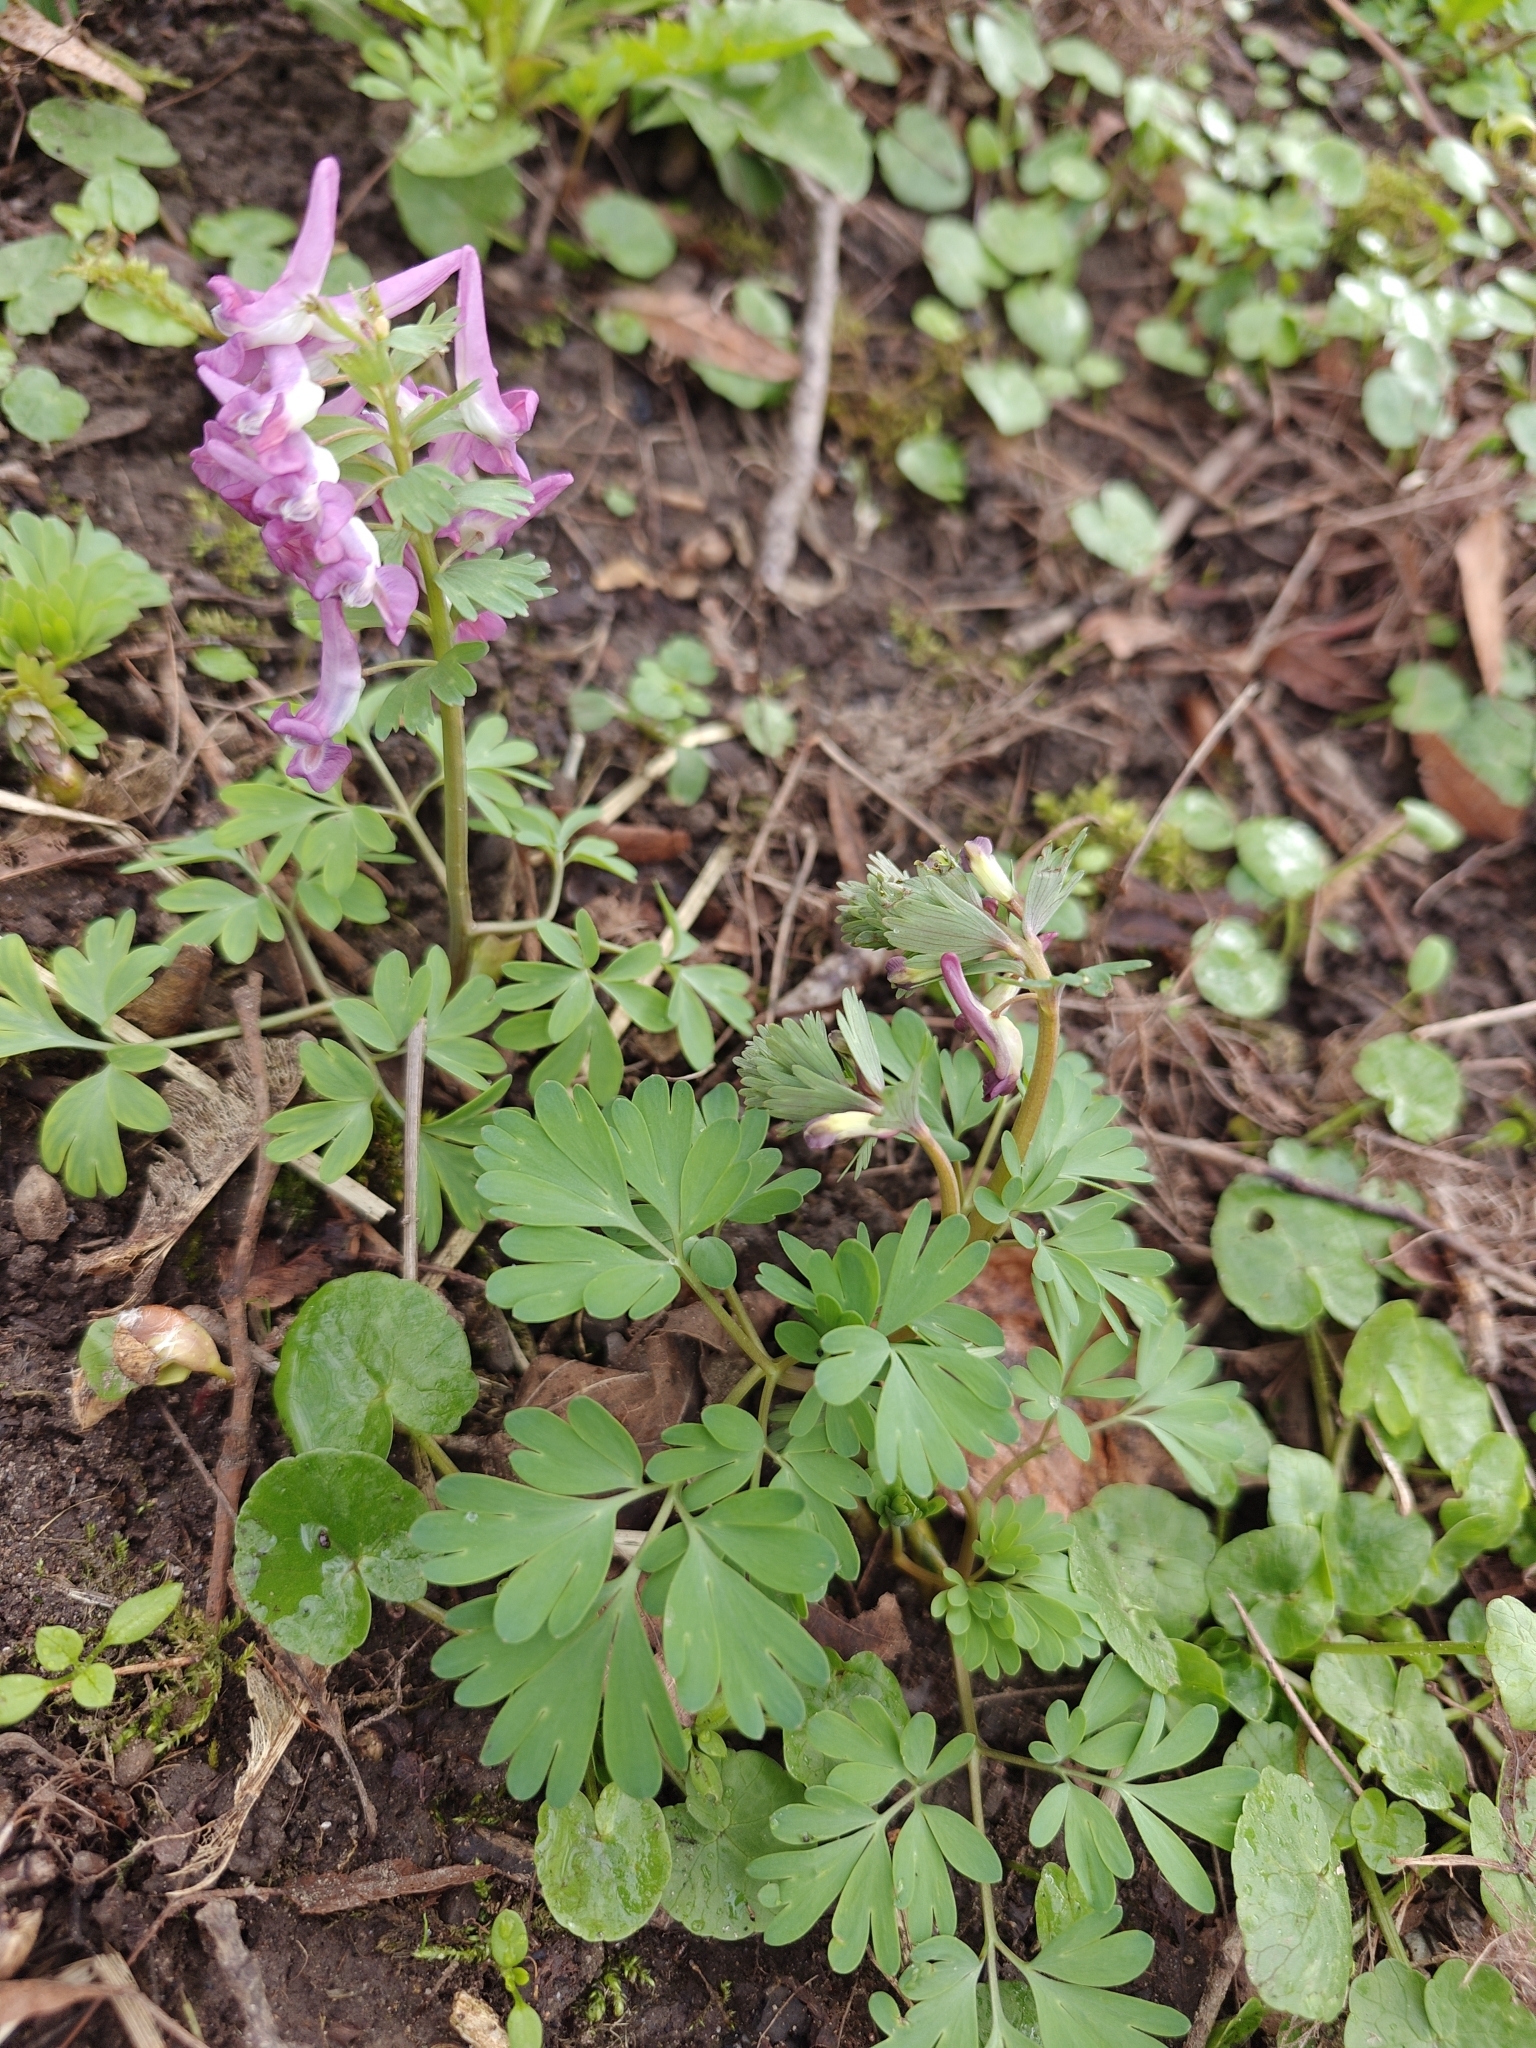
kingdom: Plantae
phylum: Tracheophyta
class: Magnoliopsida
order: Ranunculales
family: Papaveraceae
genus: Corydalis
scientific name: Corydalis solida
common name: Bird-in-a-bush
